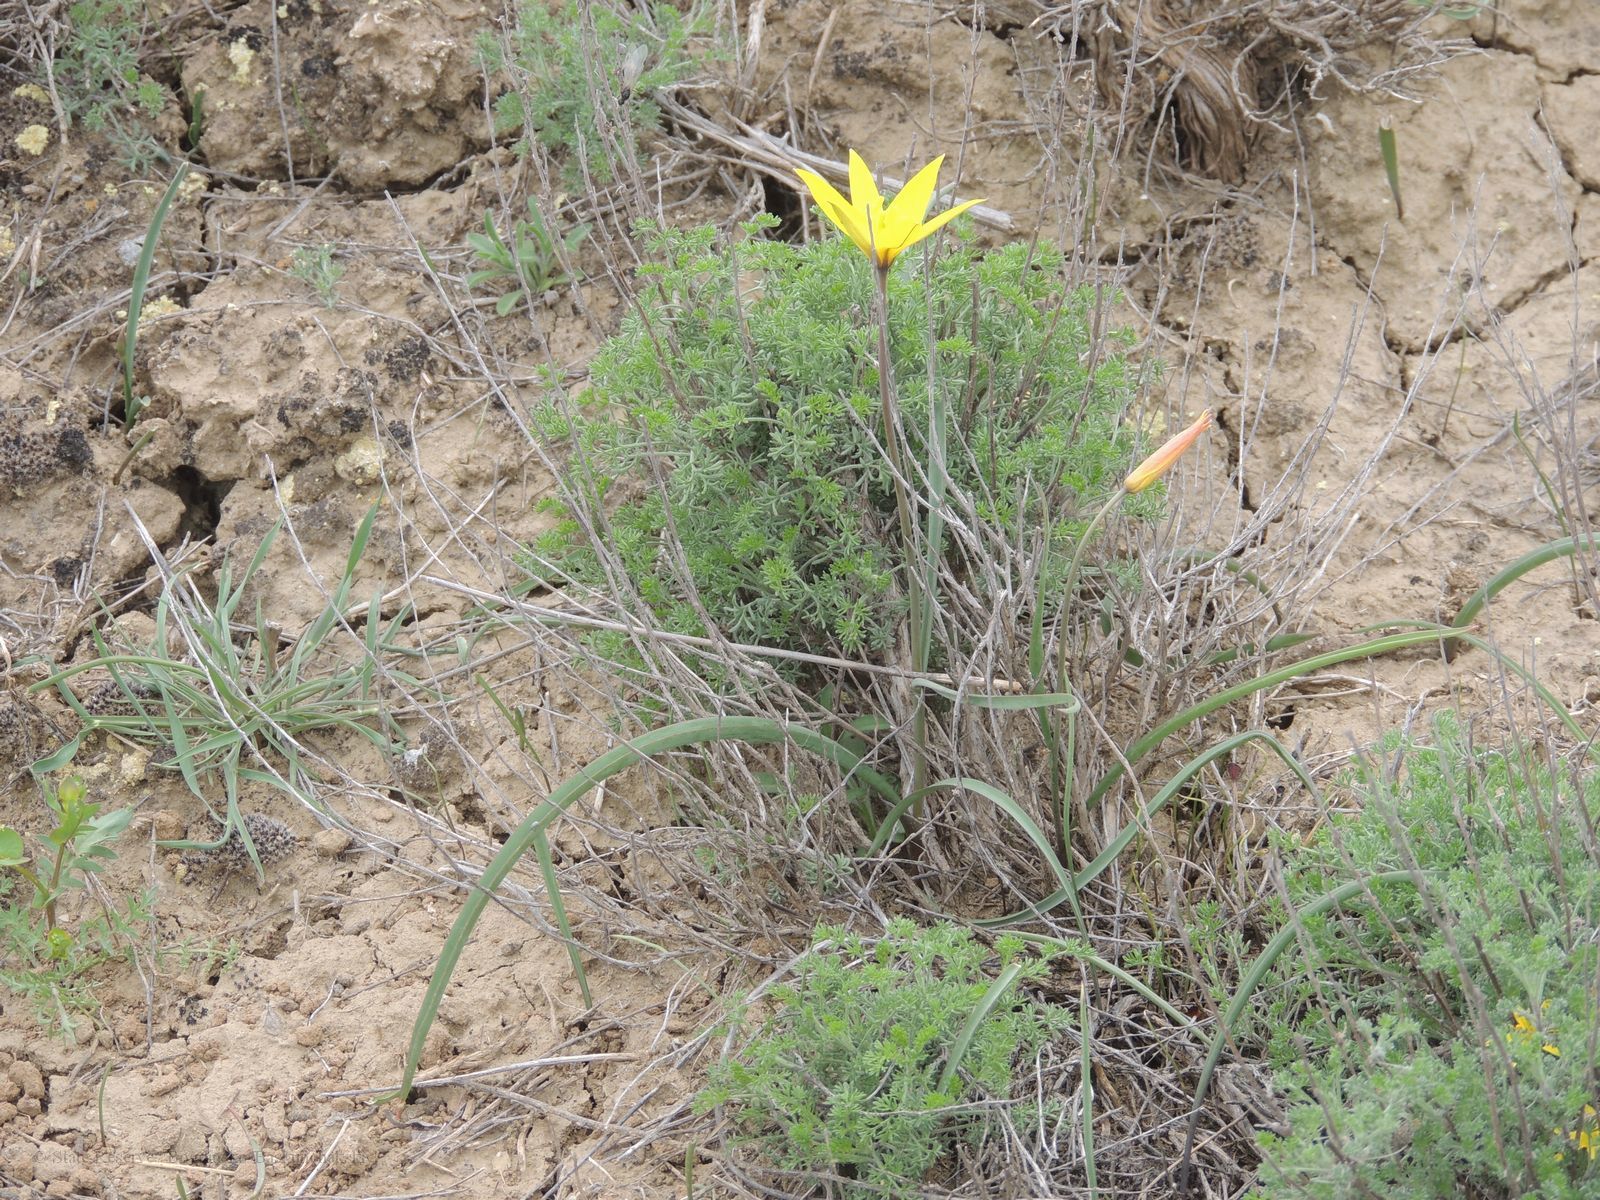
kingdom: Plantae
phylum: Tracheophyta
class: Liliopsida
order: Liliales
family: Liliaceae
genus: Tulipa
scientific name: Tulipa sylvestris
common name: Wild tulip
